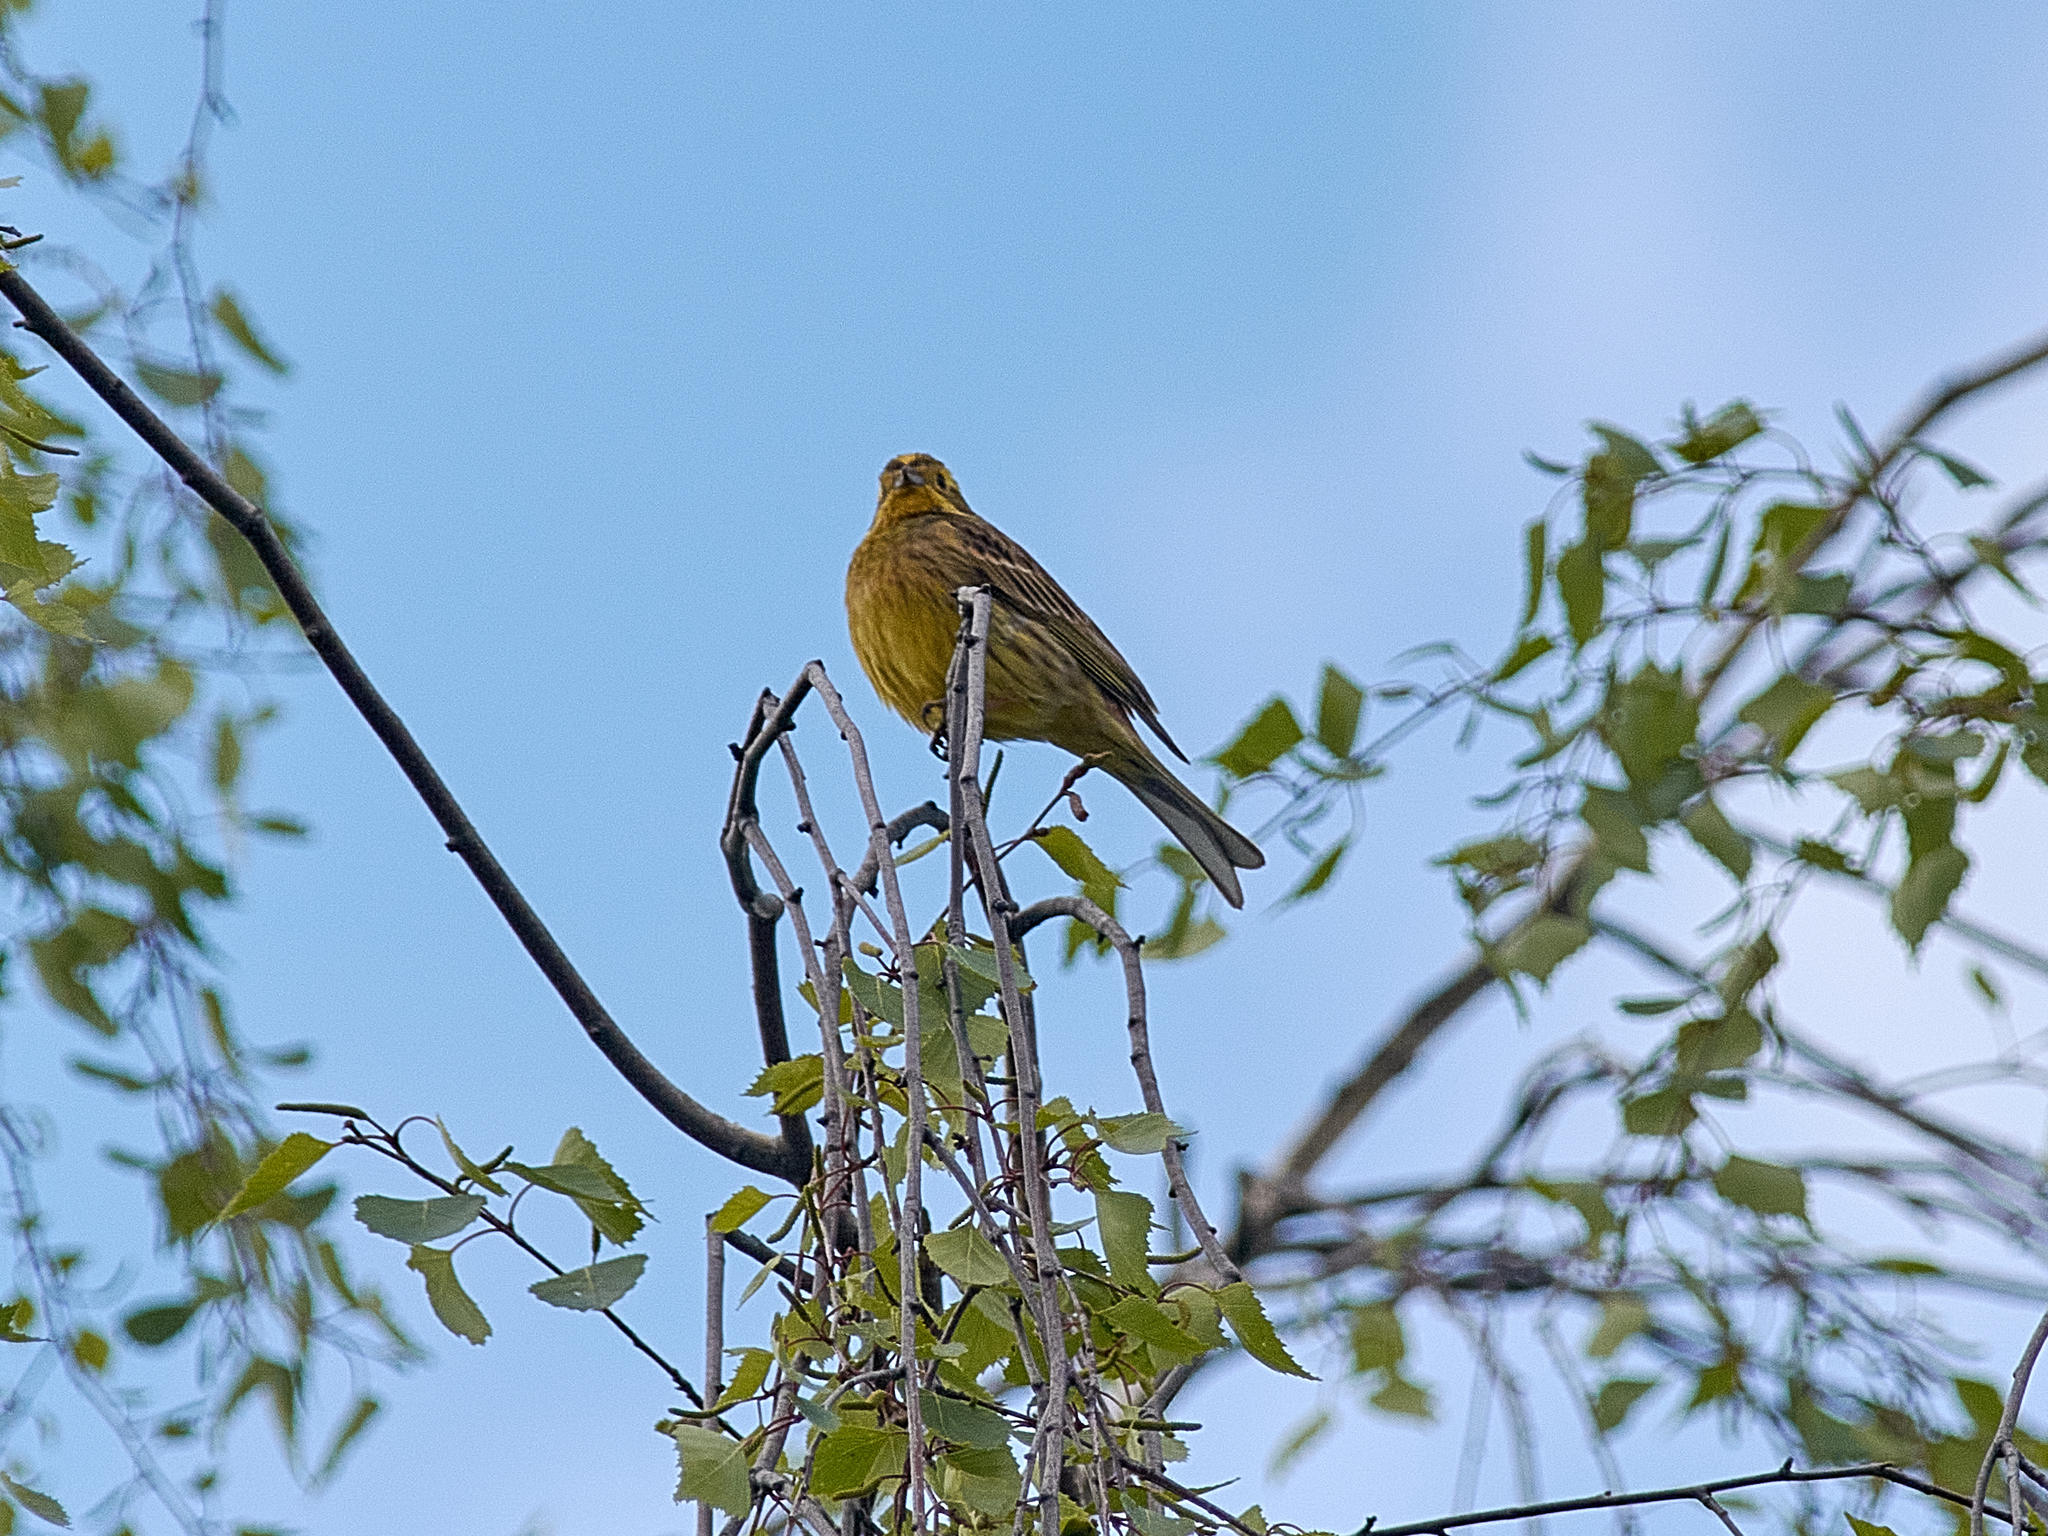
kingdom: Animalia
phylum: Chordata
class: Aves
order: Passeriformes
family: Emberizidae
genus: Emberiza
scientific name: Emberiza citrinella
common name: Yellowhammer
